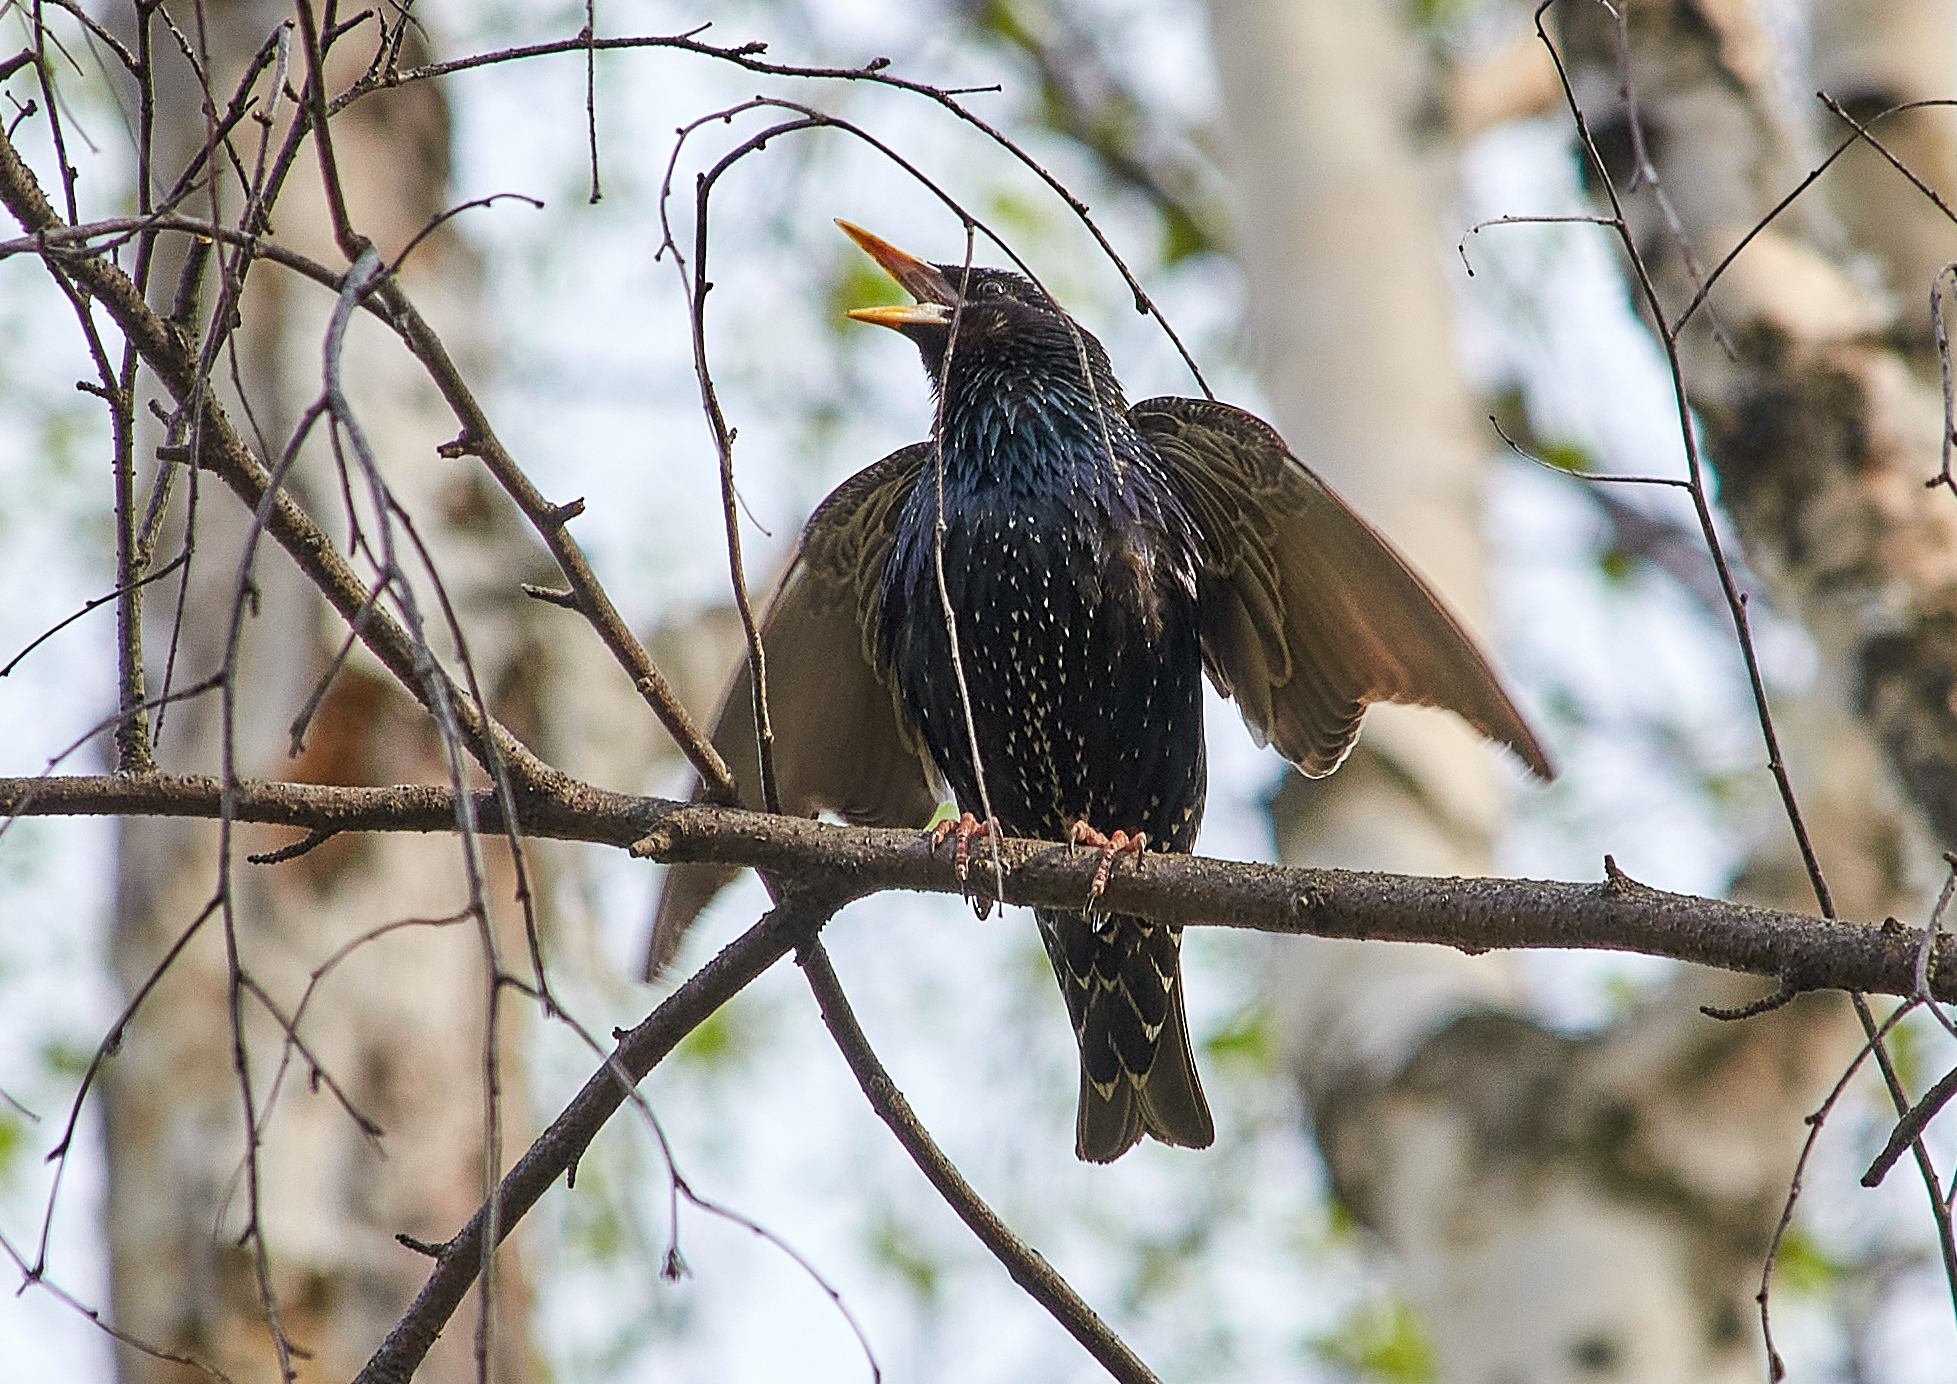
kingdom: Animalia
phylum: Chordata
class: Aves
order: Passeriformes
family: Sturnidae
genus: Sturnus
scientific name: Sturnus vulgaris
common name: Common starling
